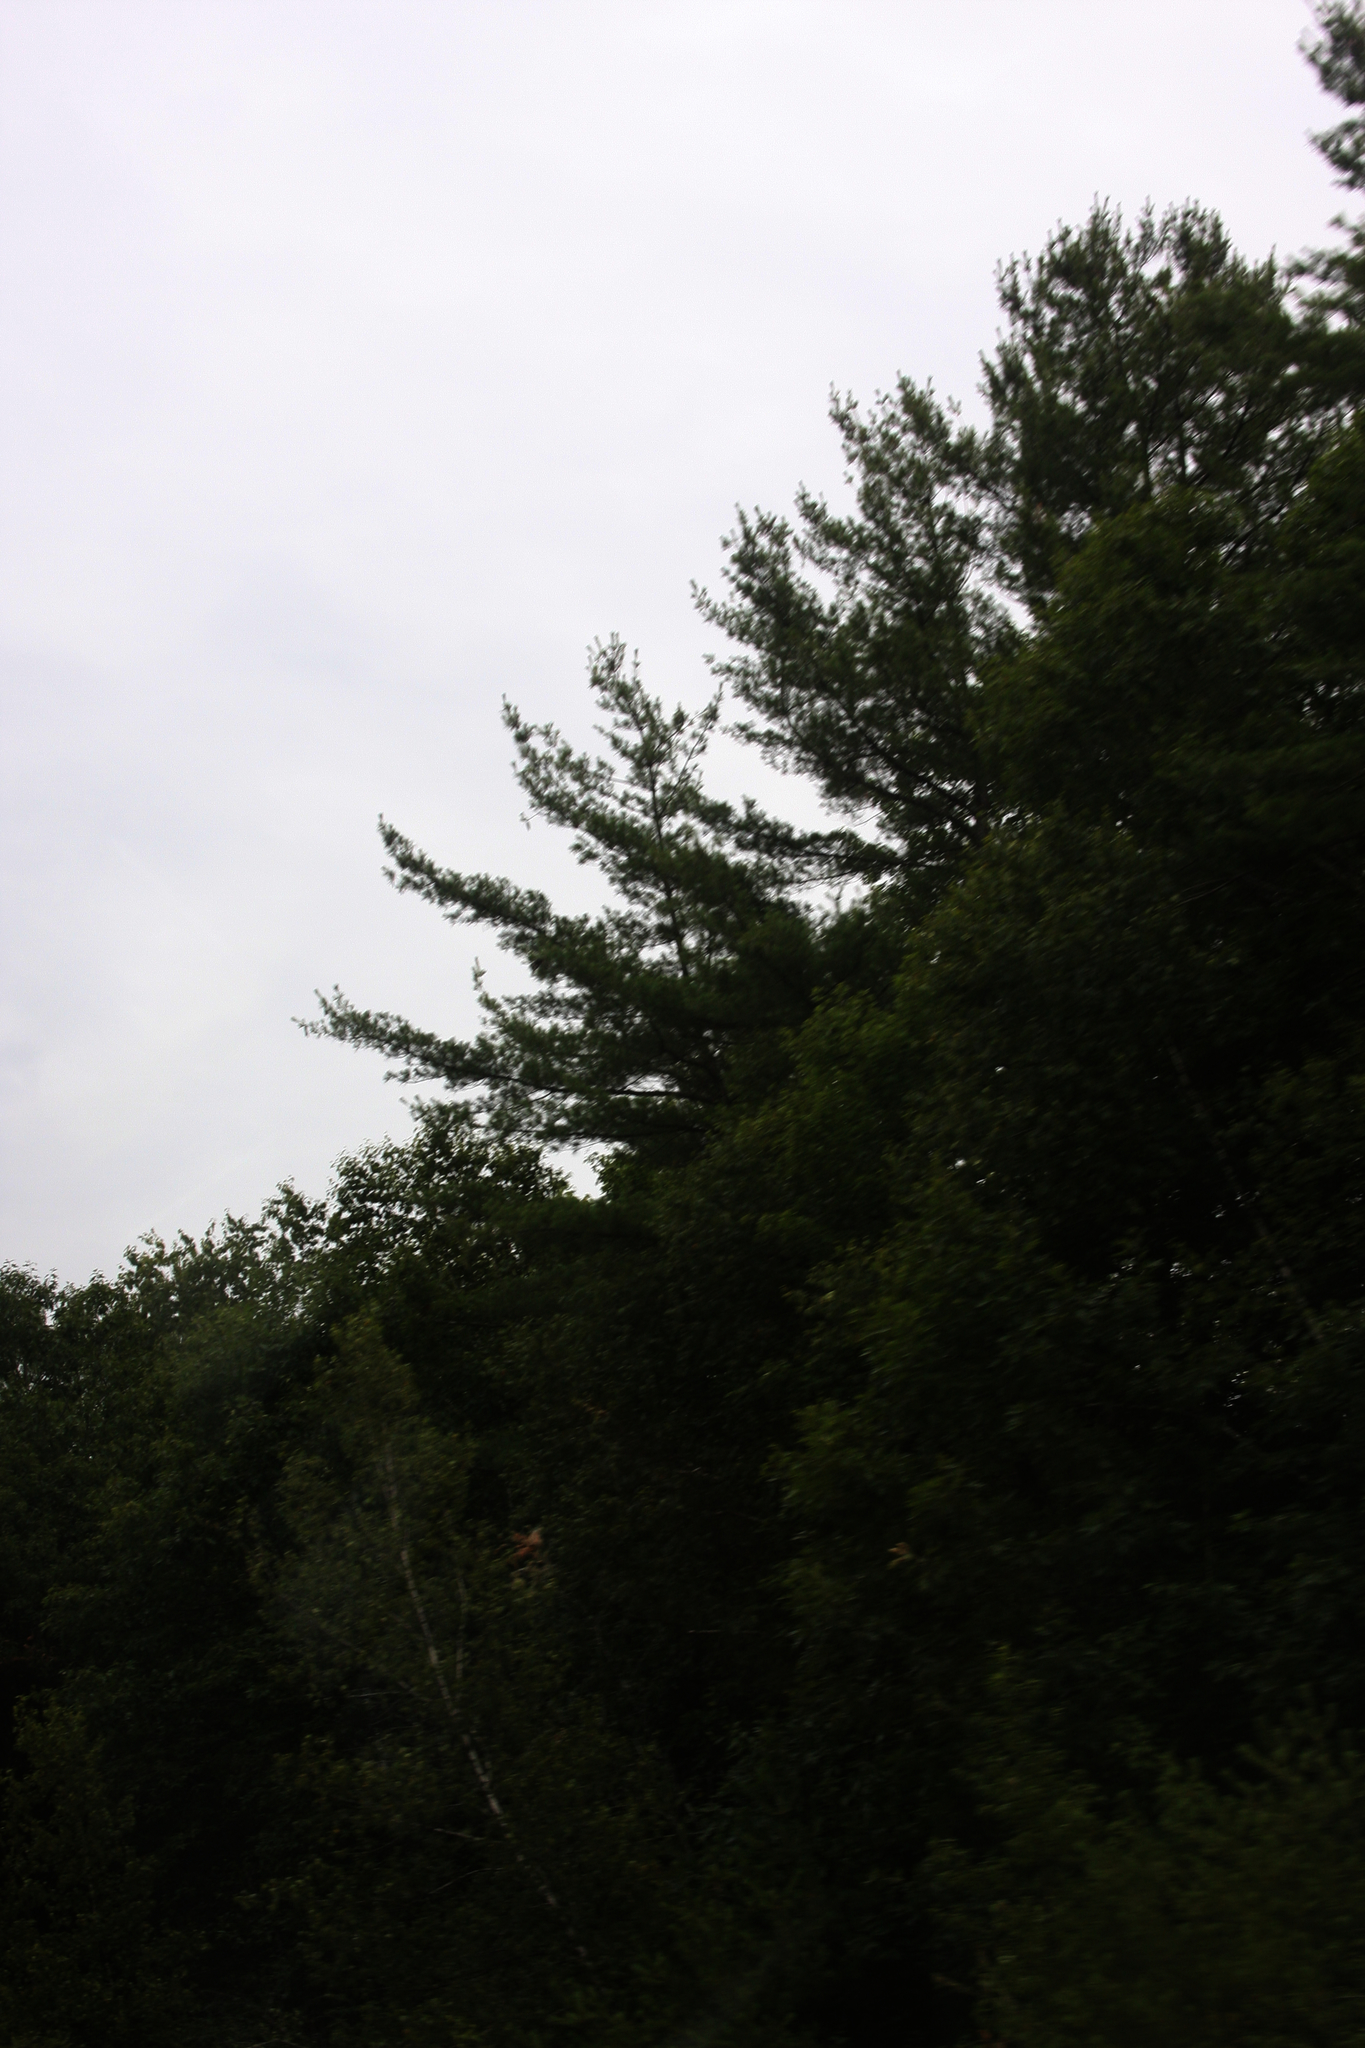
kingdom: Plantae
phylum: Tracheophyta
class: Pinopsida
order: Pinales
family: Pinaceae
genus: Pinus
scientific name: Pinus strobus
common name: Weymouth pine
